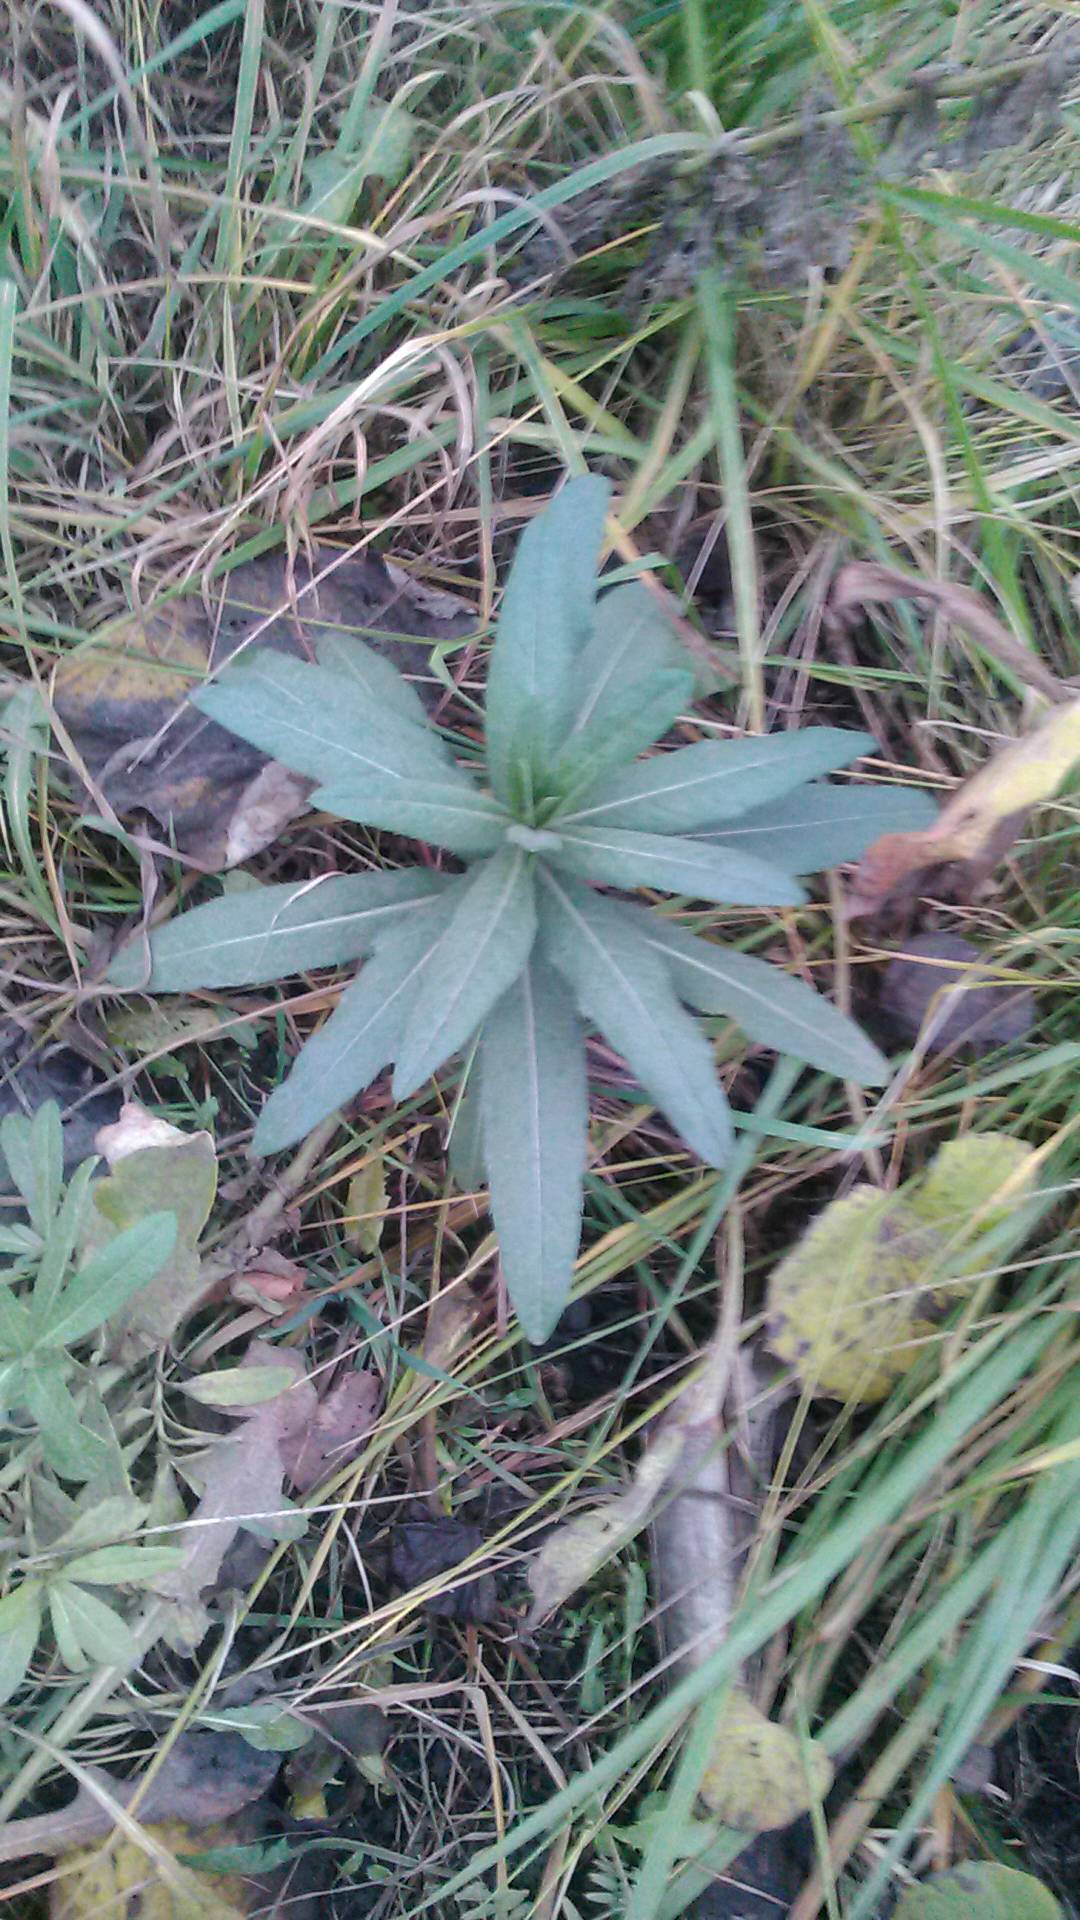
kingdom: Plantae
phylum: Tracheophyta
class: Magnoliopsida
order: Asterales
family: Asteraceae
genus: Cirsium
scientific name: Cirsium arvense
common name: Creeping thistle
